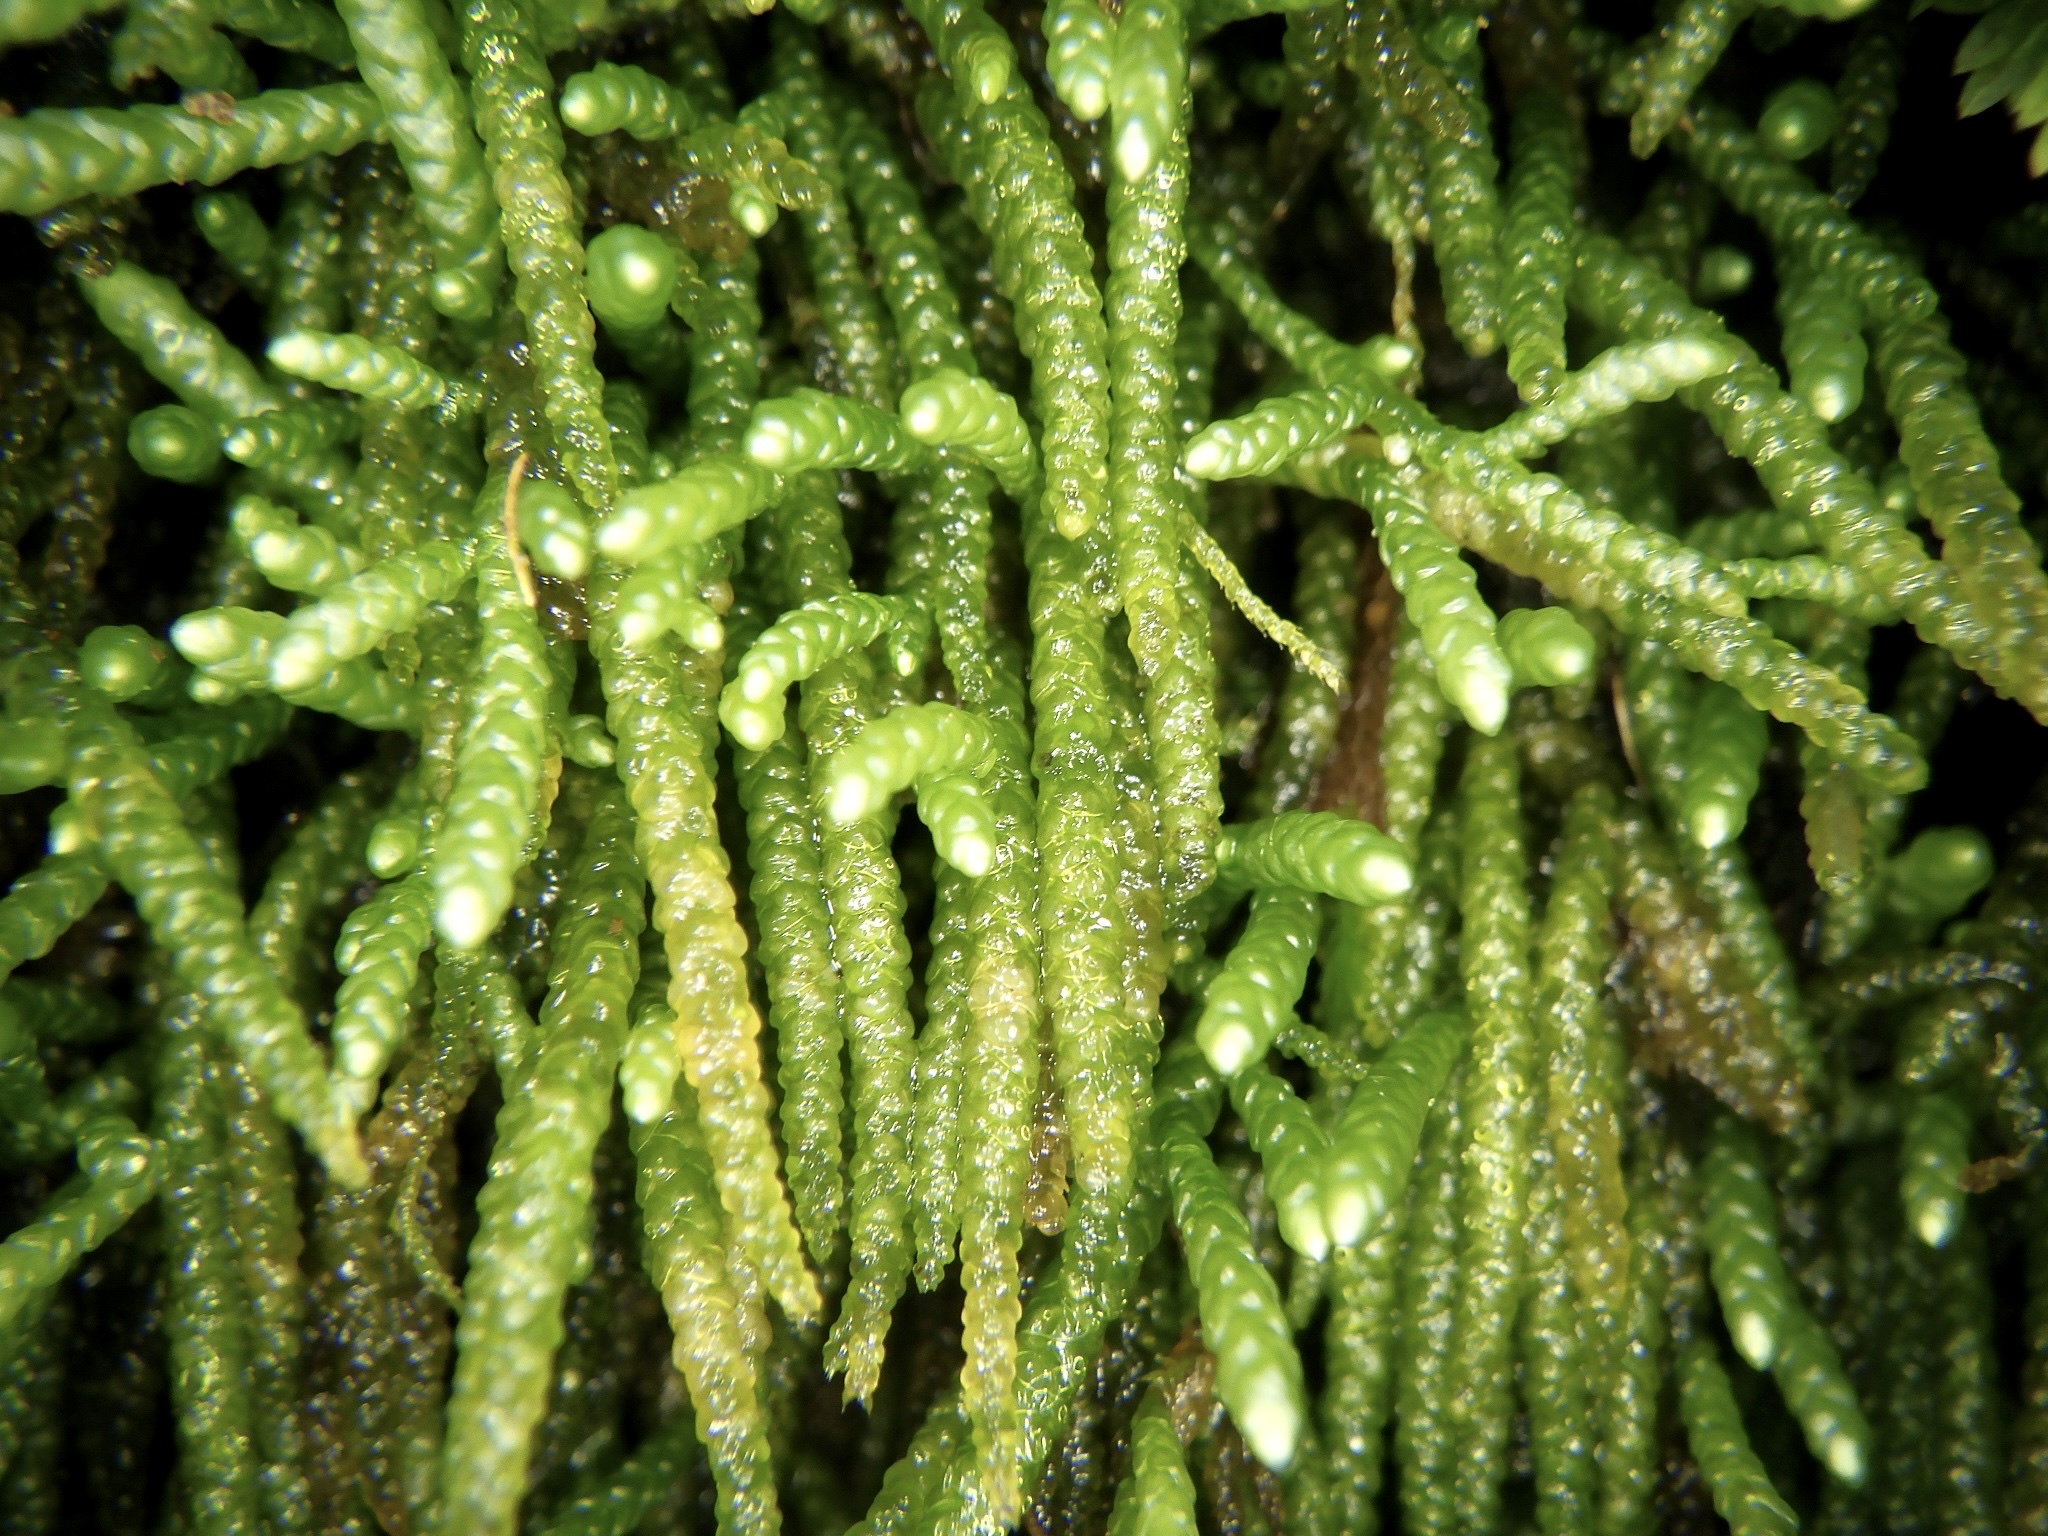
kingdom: Plantae
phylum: Bryophyta
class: Bryopsida
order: Hypnales
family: Brachytheciaceae
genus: Myuroclada
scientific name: Myuroclada maximowiczii
